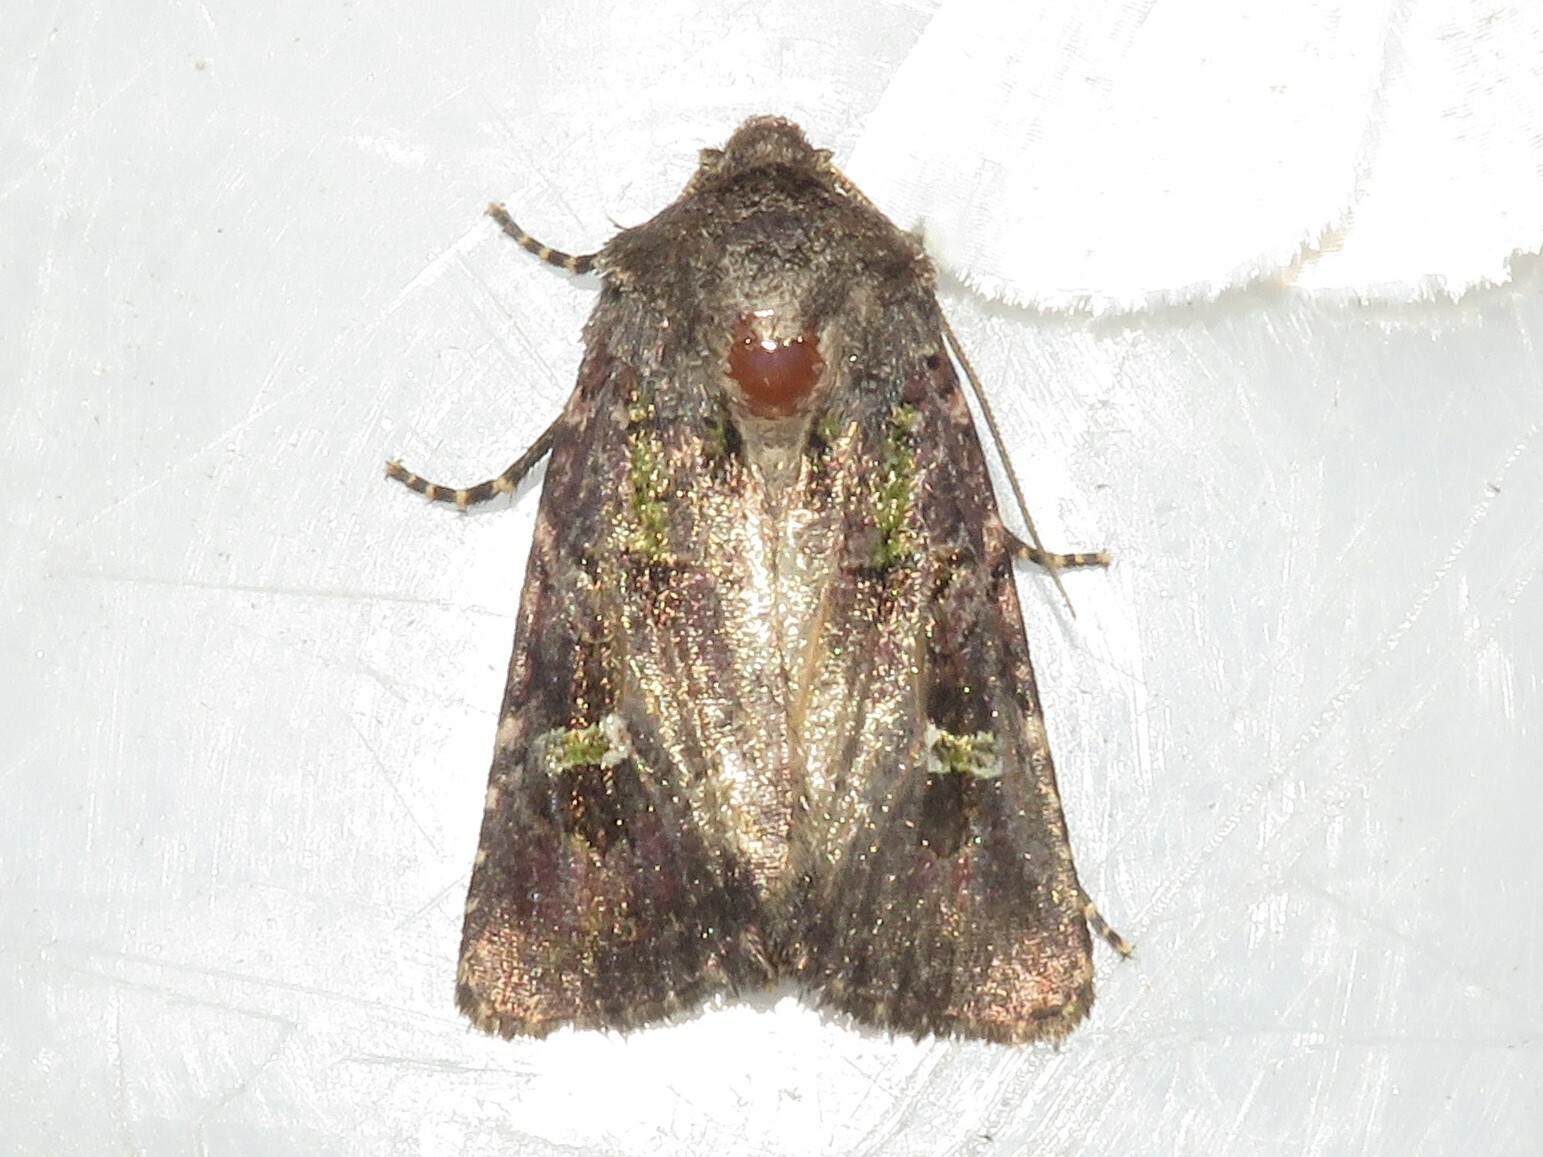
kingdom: Animalia
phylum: Arthropoda
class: Insecta
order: Lepidoptera
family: Noctuidae
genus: Lacinipolia
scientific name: Lacinipolia renigera
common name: Kidney-spotted minor
